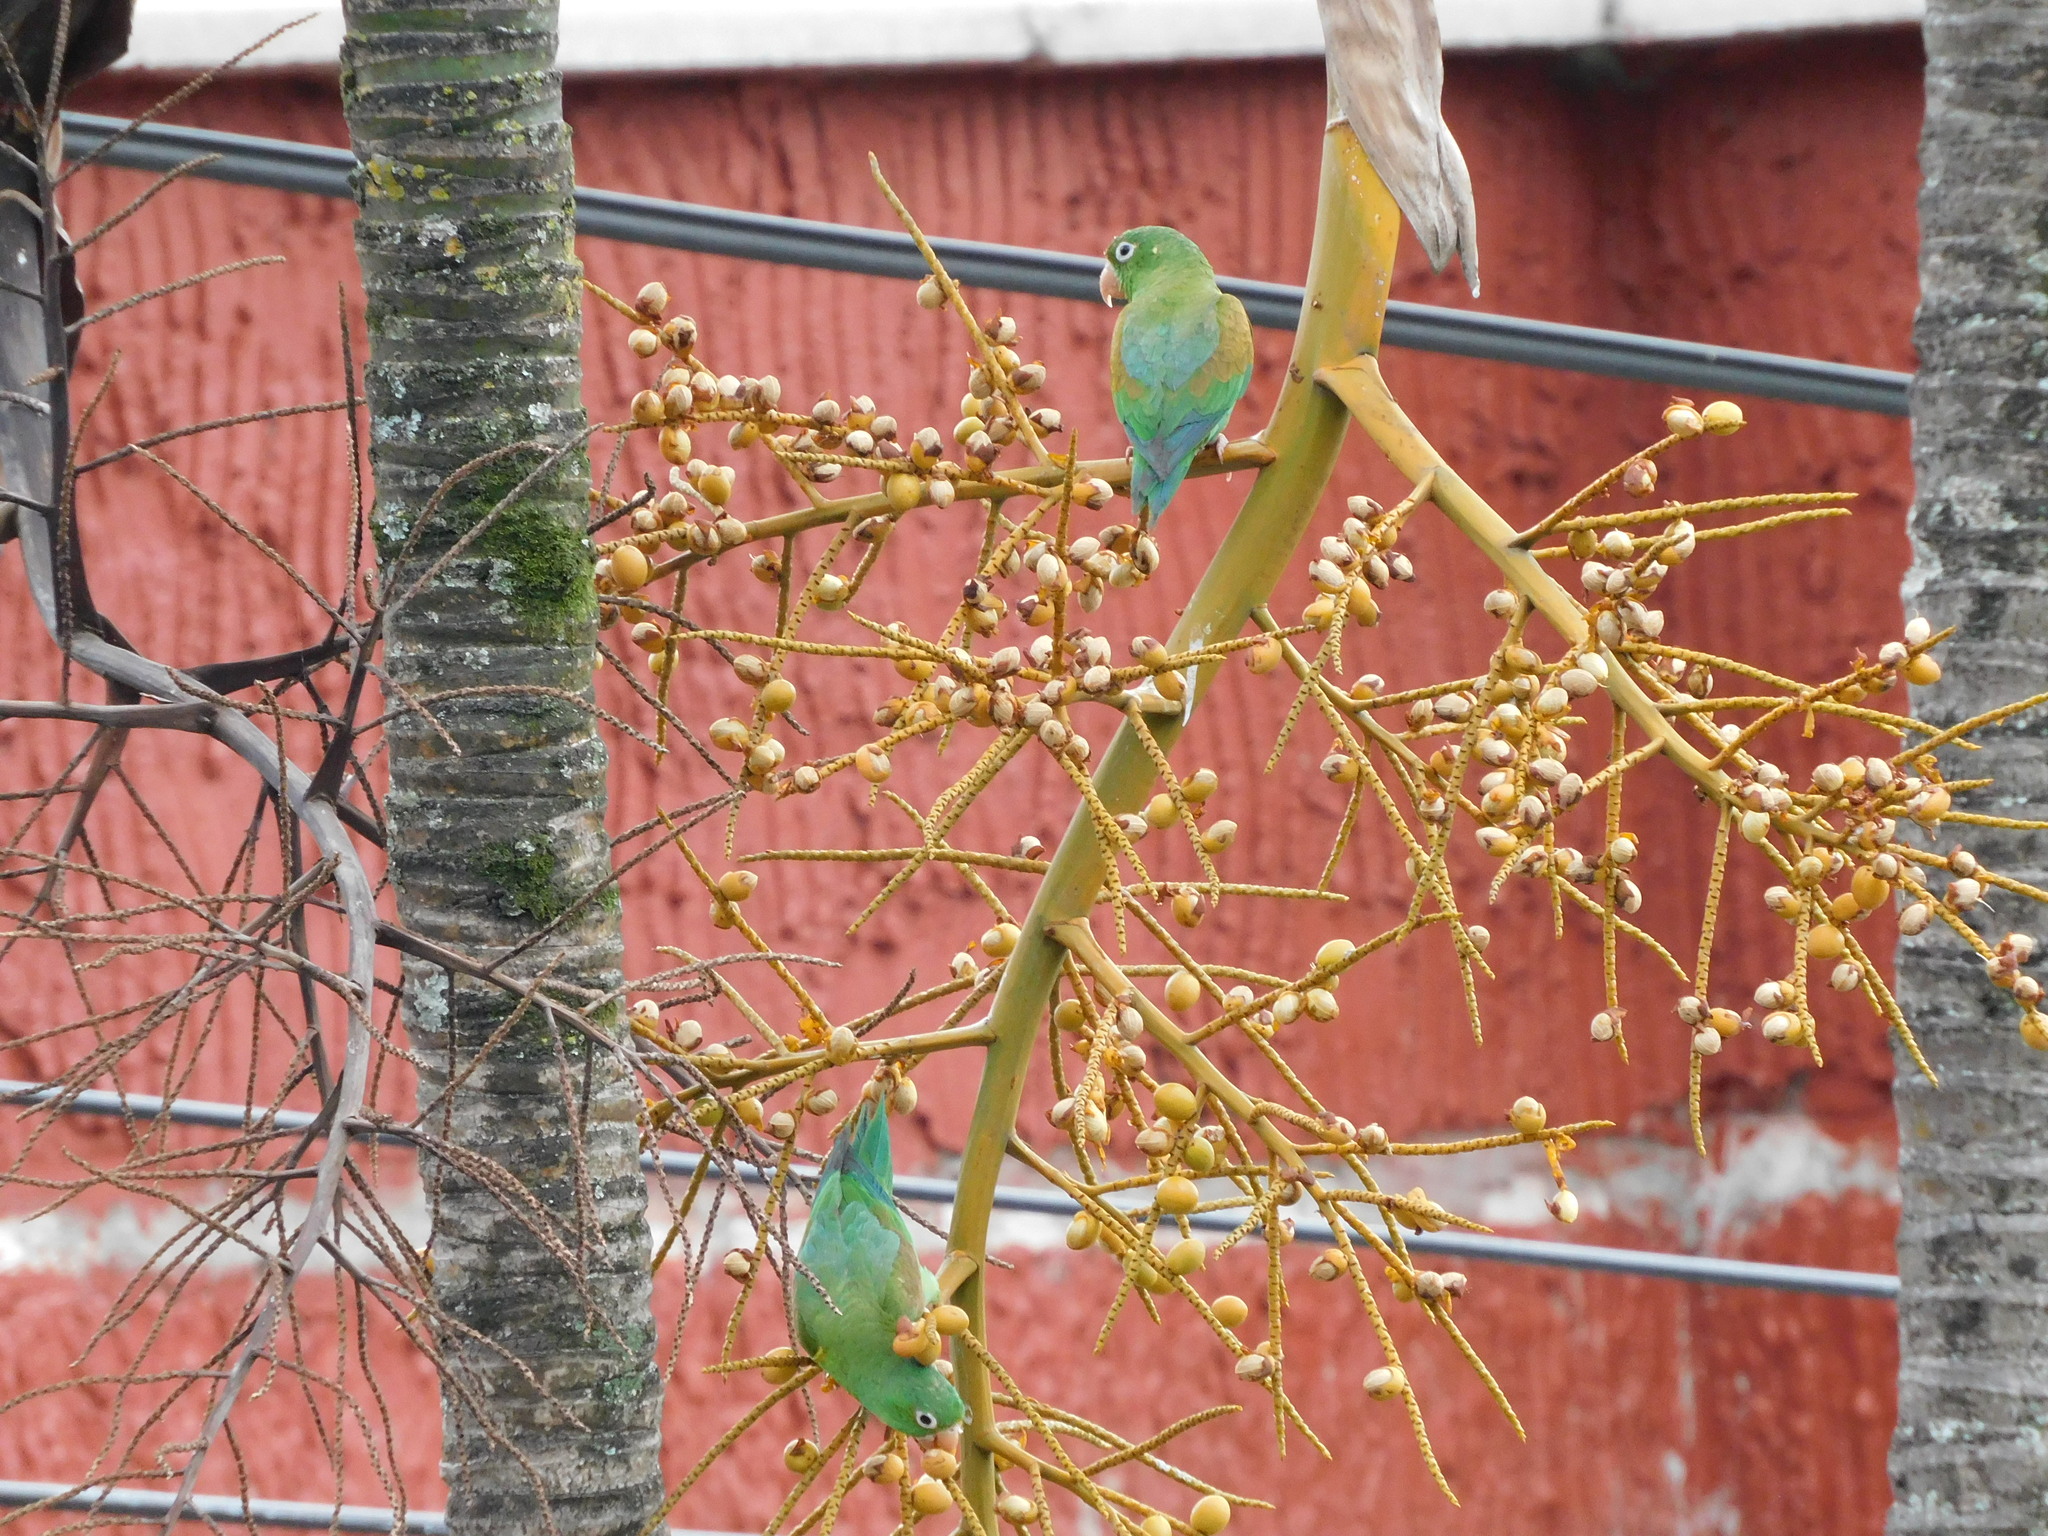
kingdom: Animalia
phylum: Chordata
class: Aves
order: Psittaciformes
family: Psittacidae
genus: Brotogeris
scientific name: Brotogeris jugularis
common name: Orange-chinned parakeet
